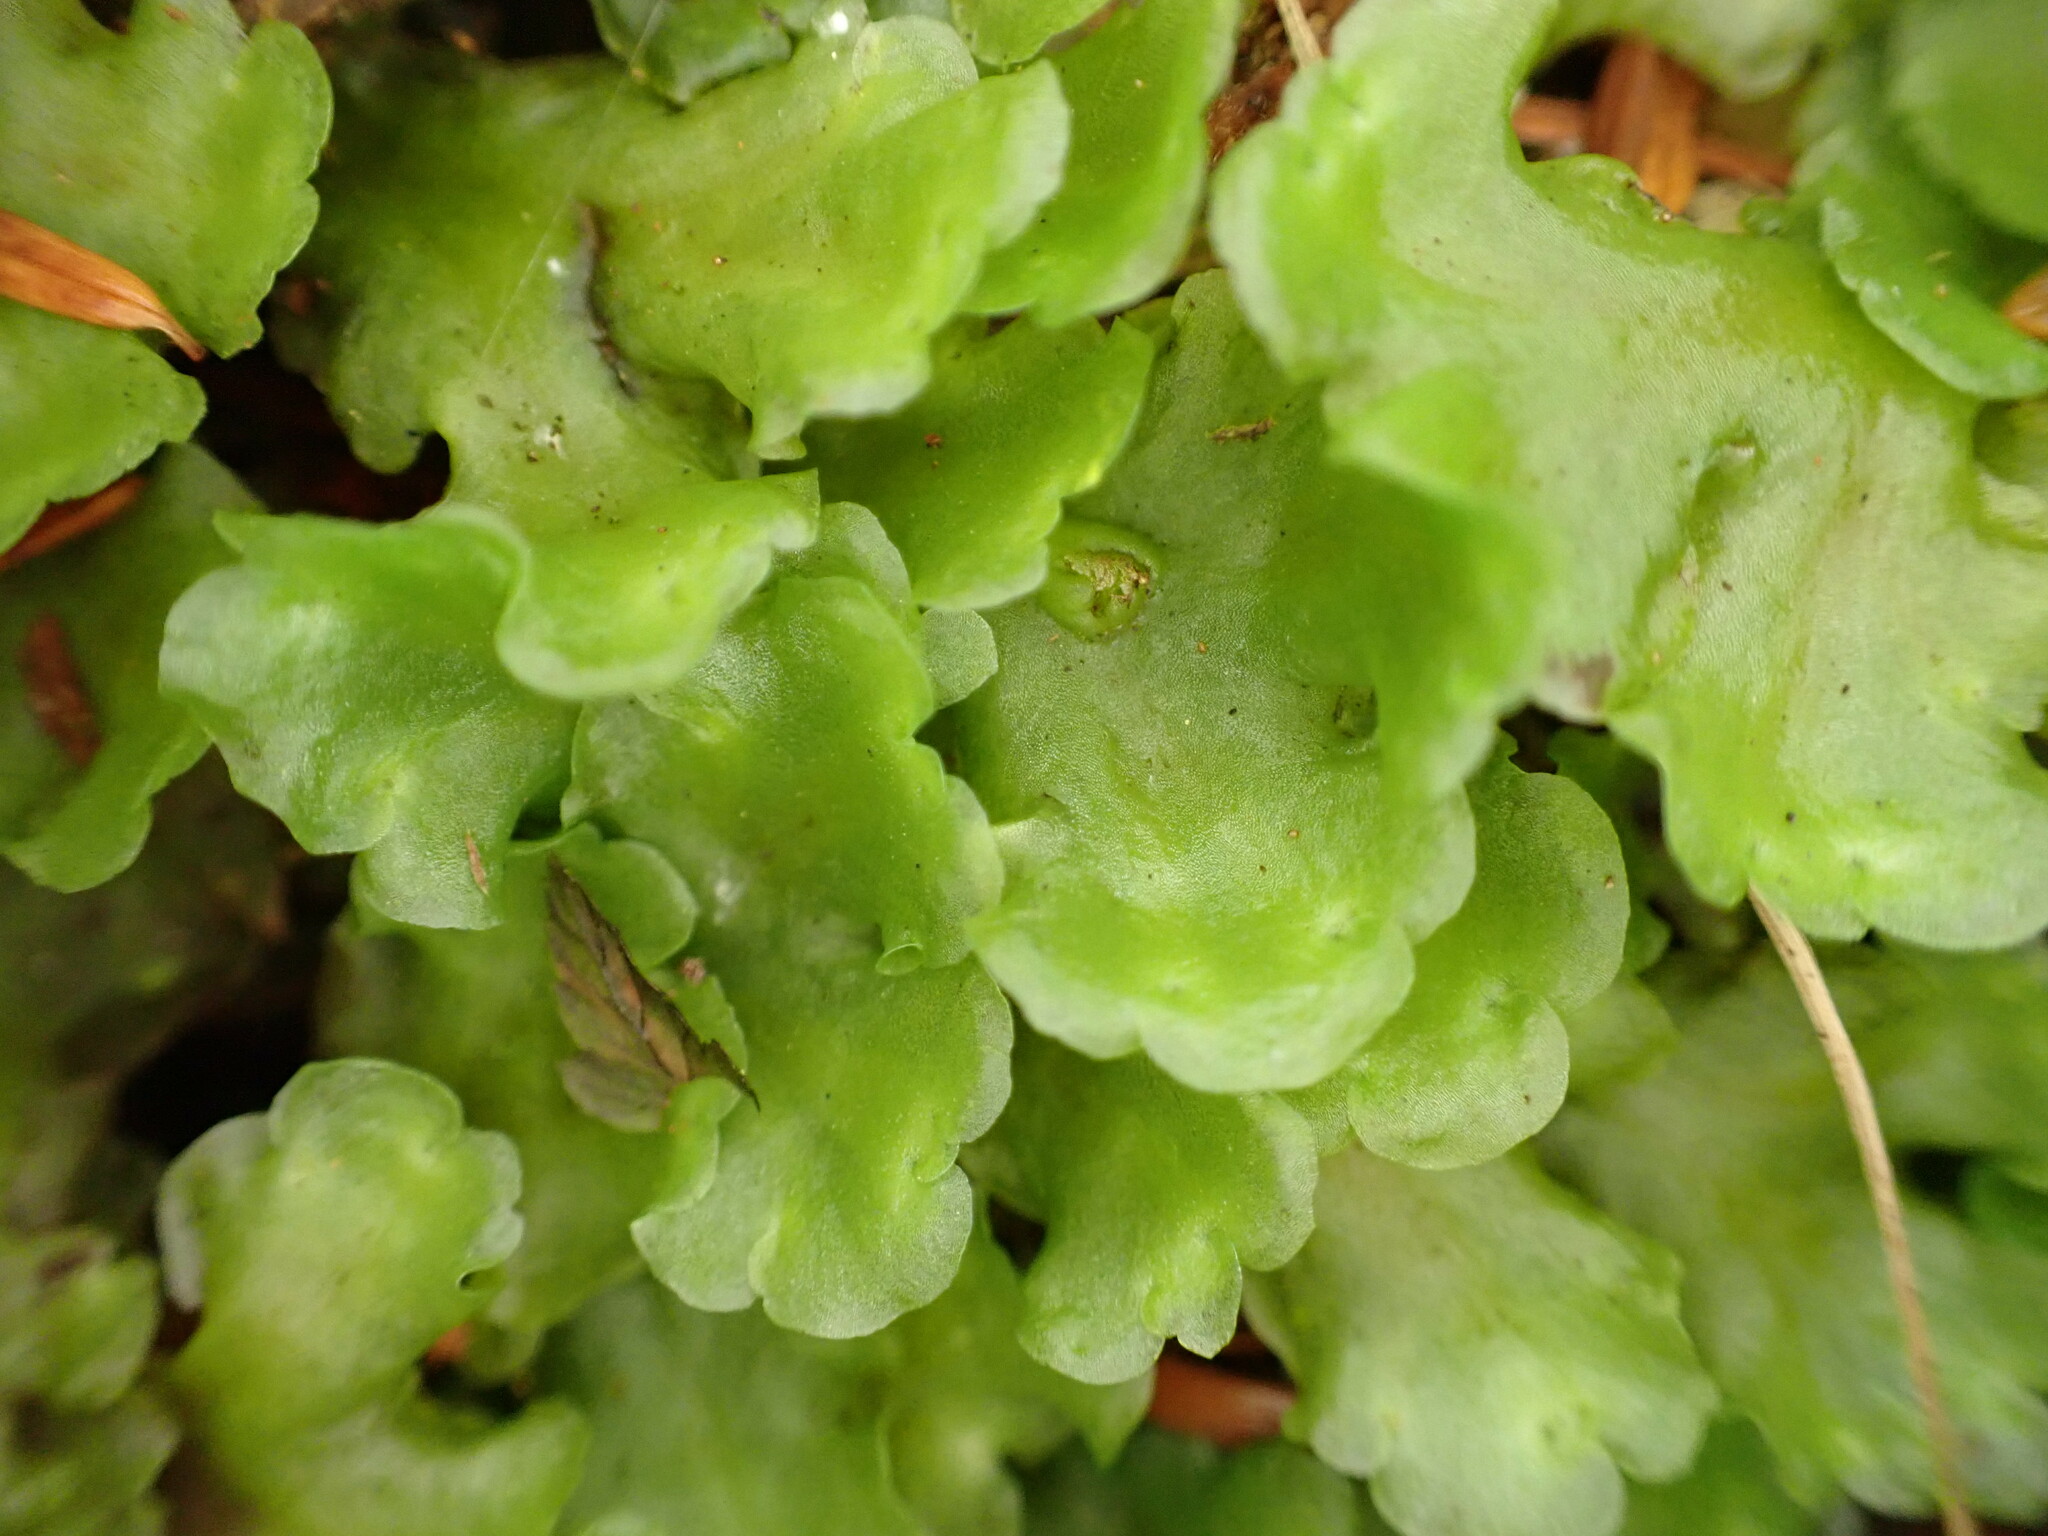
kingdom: Plantae
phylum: Marchantiophyta
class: Jungermanniopsida
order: Pelliales
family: Pelliaceae
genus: Pellia
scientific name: Pellia neesiana
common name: Nees  pellia
